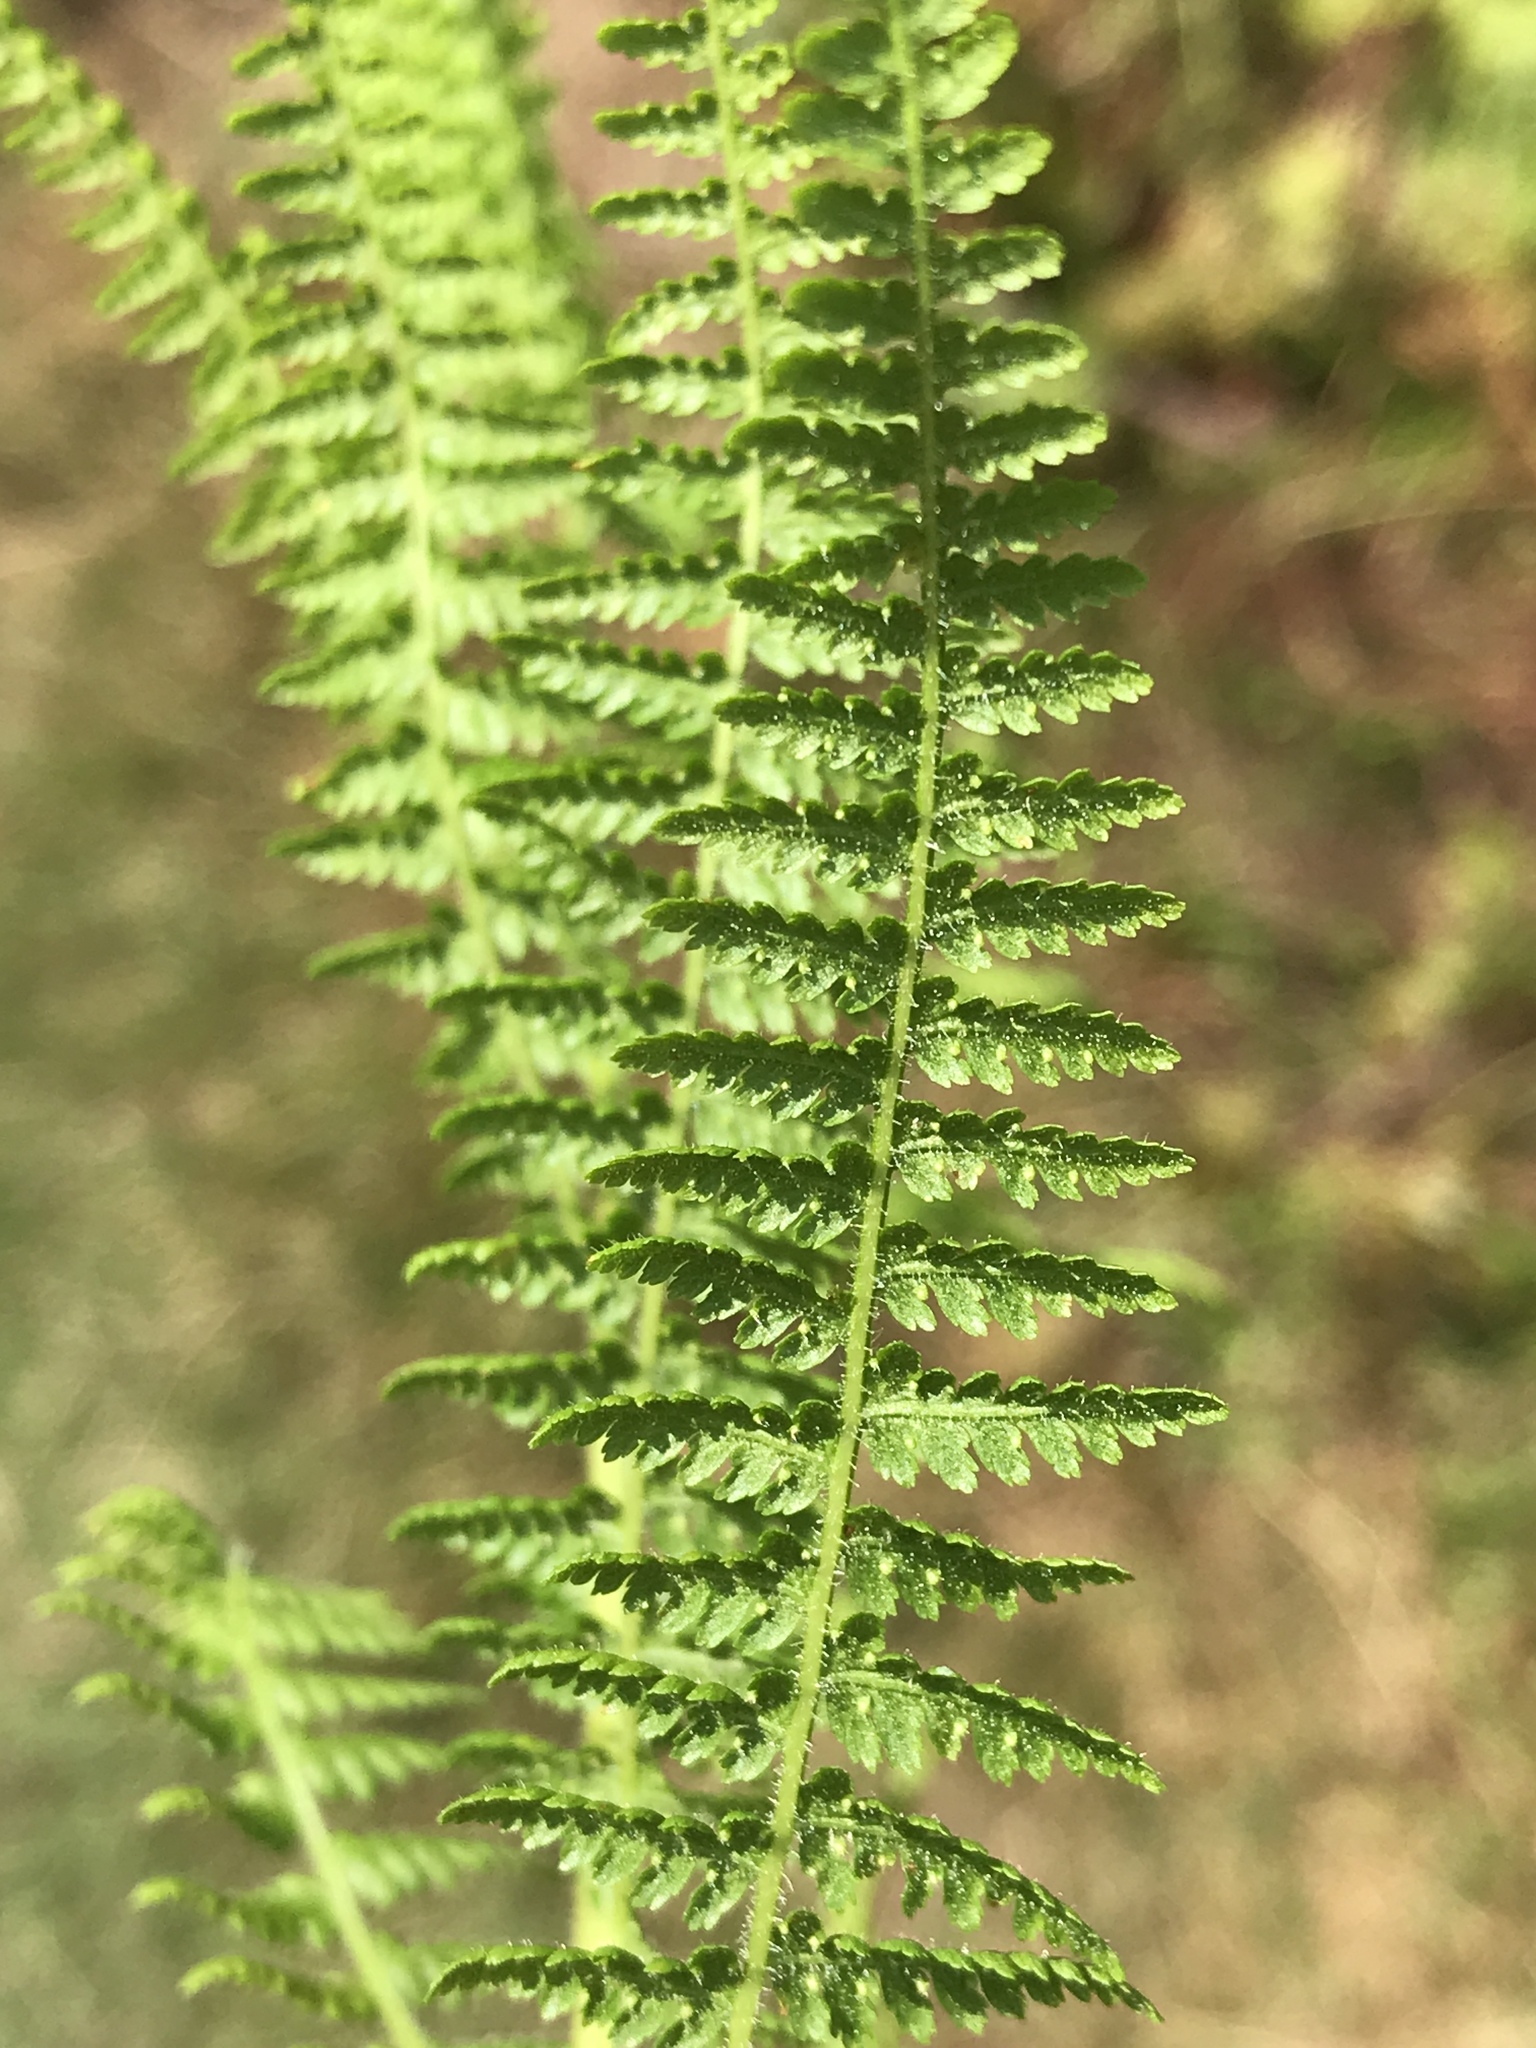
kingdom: Plantae
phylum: Tracheophyta
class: Polypodiopsida
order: Polypodiales
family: Dennstaedtiaceae
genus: Sitobolium
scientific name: Sitobolium punctilobum
